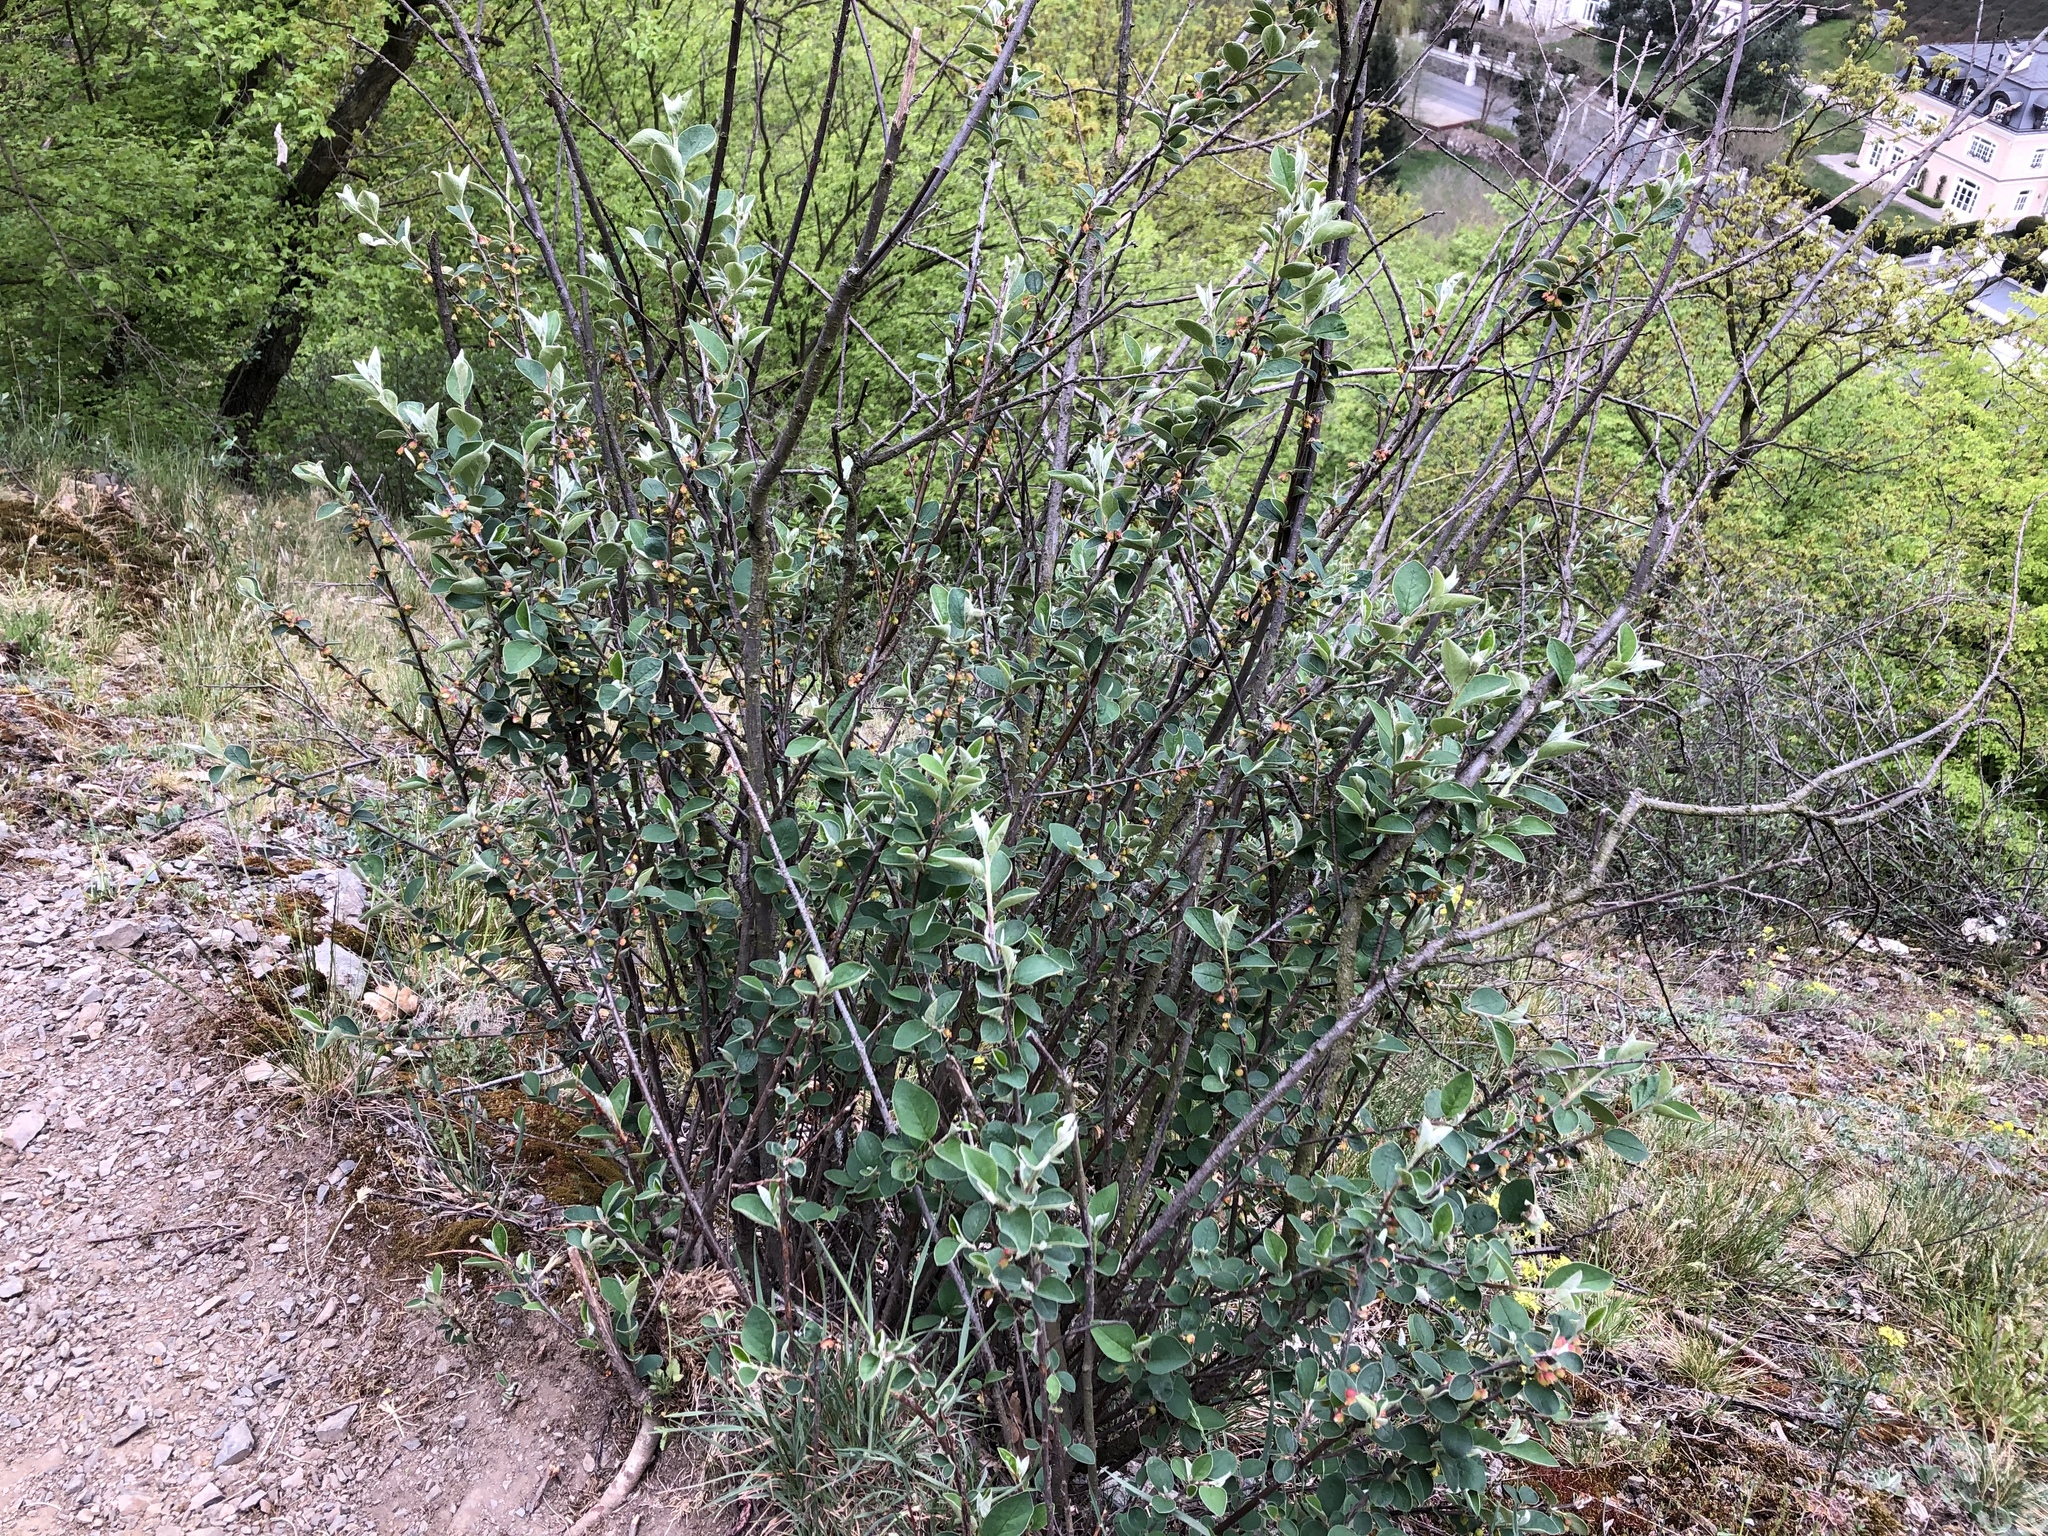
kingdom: Plantae
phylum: Tracheophyta
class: Magnoliopsida
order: Rosales
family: Rosaceae
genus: Cotoneaster
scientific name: Cotoneaster integerrimus
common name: Wild cotoneaster
